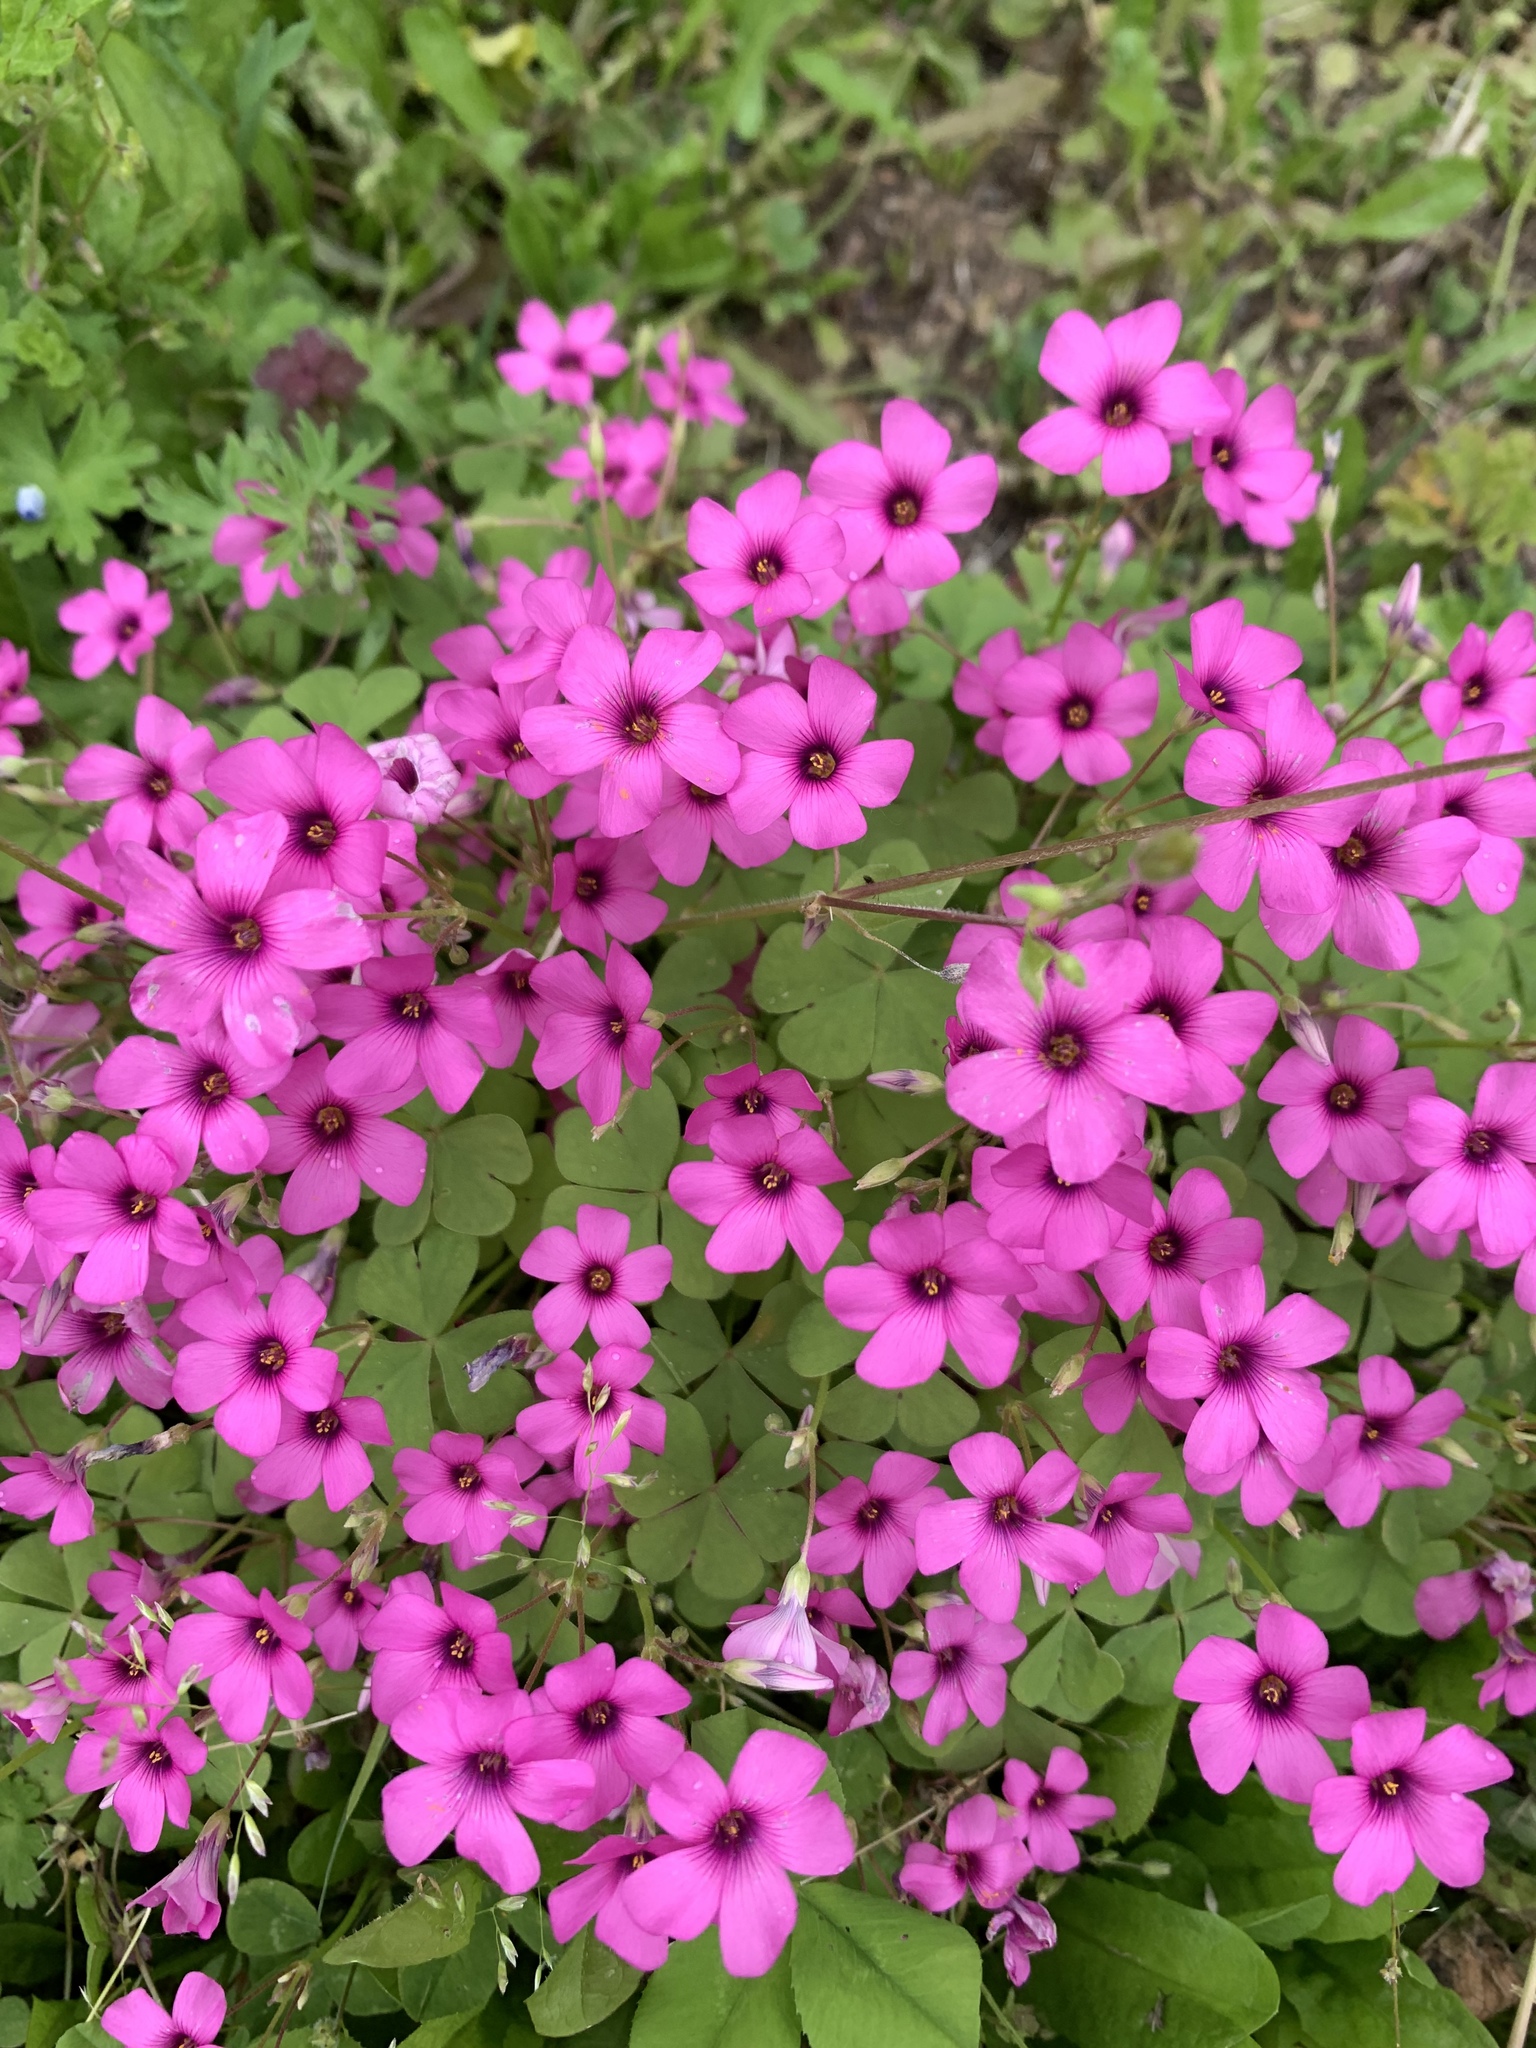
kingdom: Plantae
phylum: Tracheophyta
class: Magnoliopsida
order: Oxalidales
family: Oxalidaceae
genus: Oxalis
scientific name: Oxalis articulata
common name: Pink-sorrel
